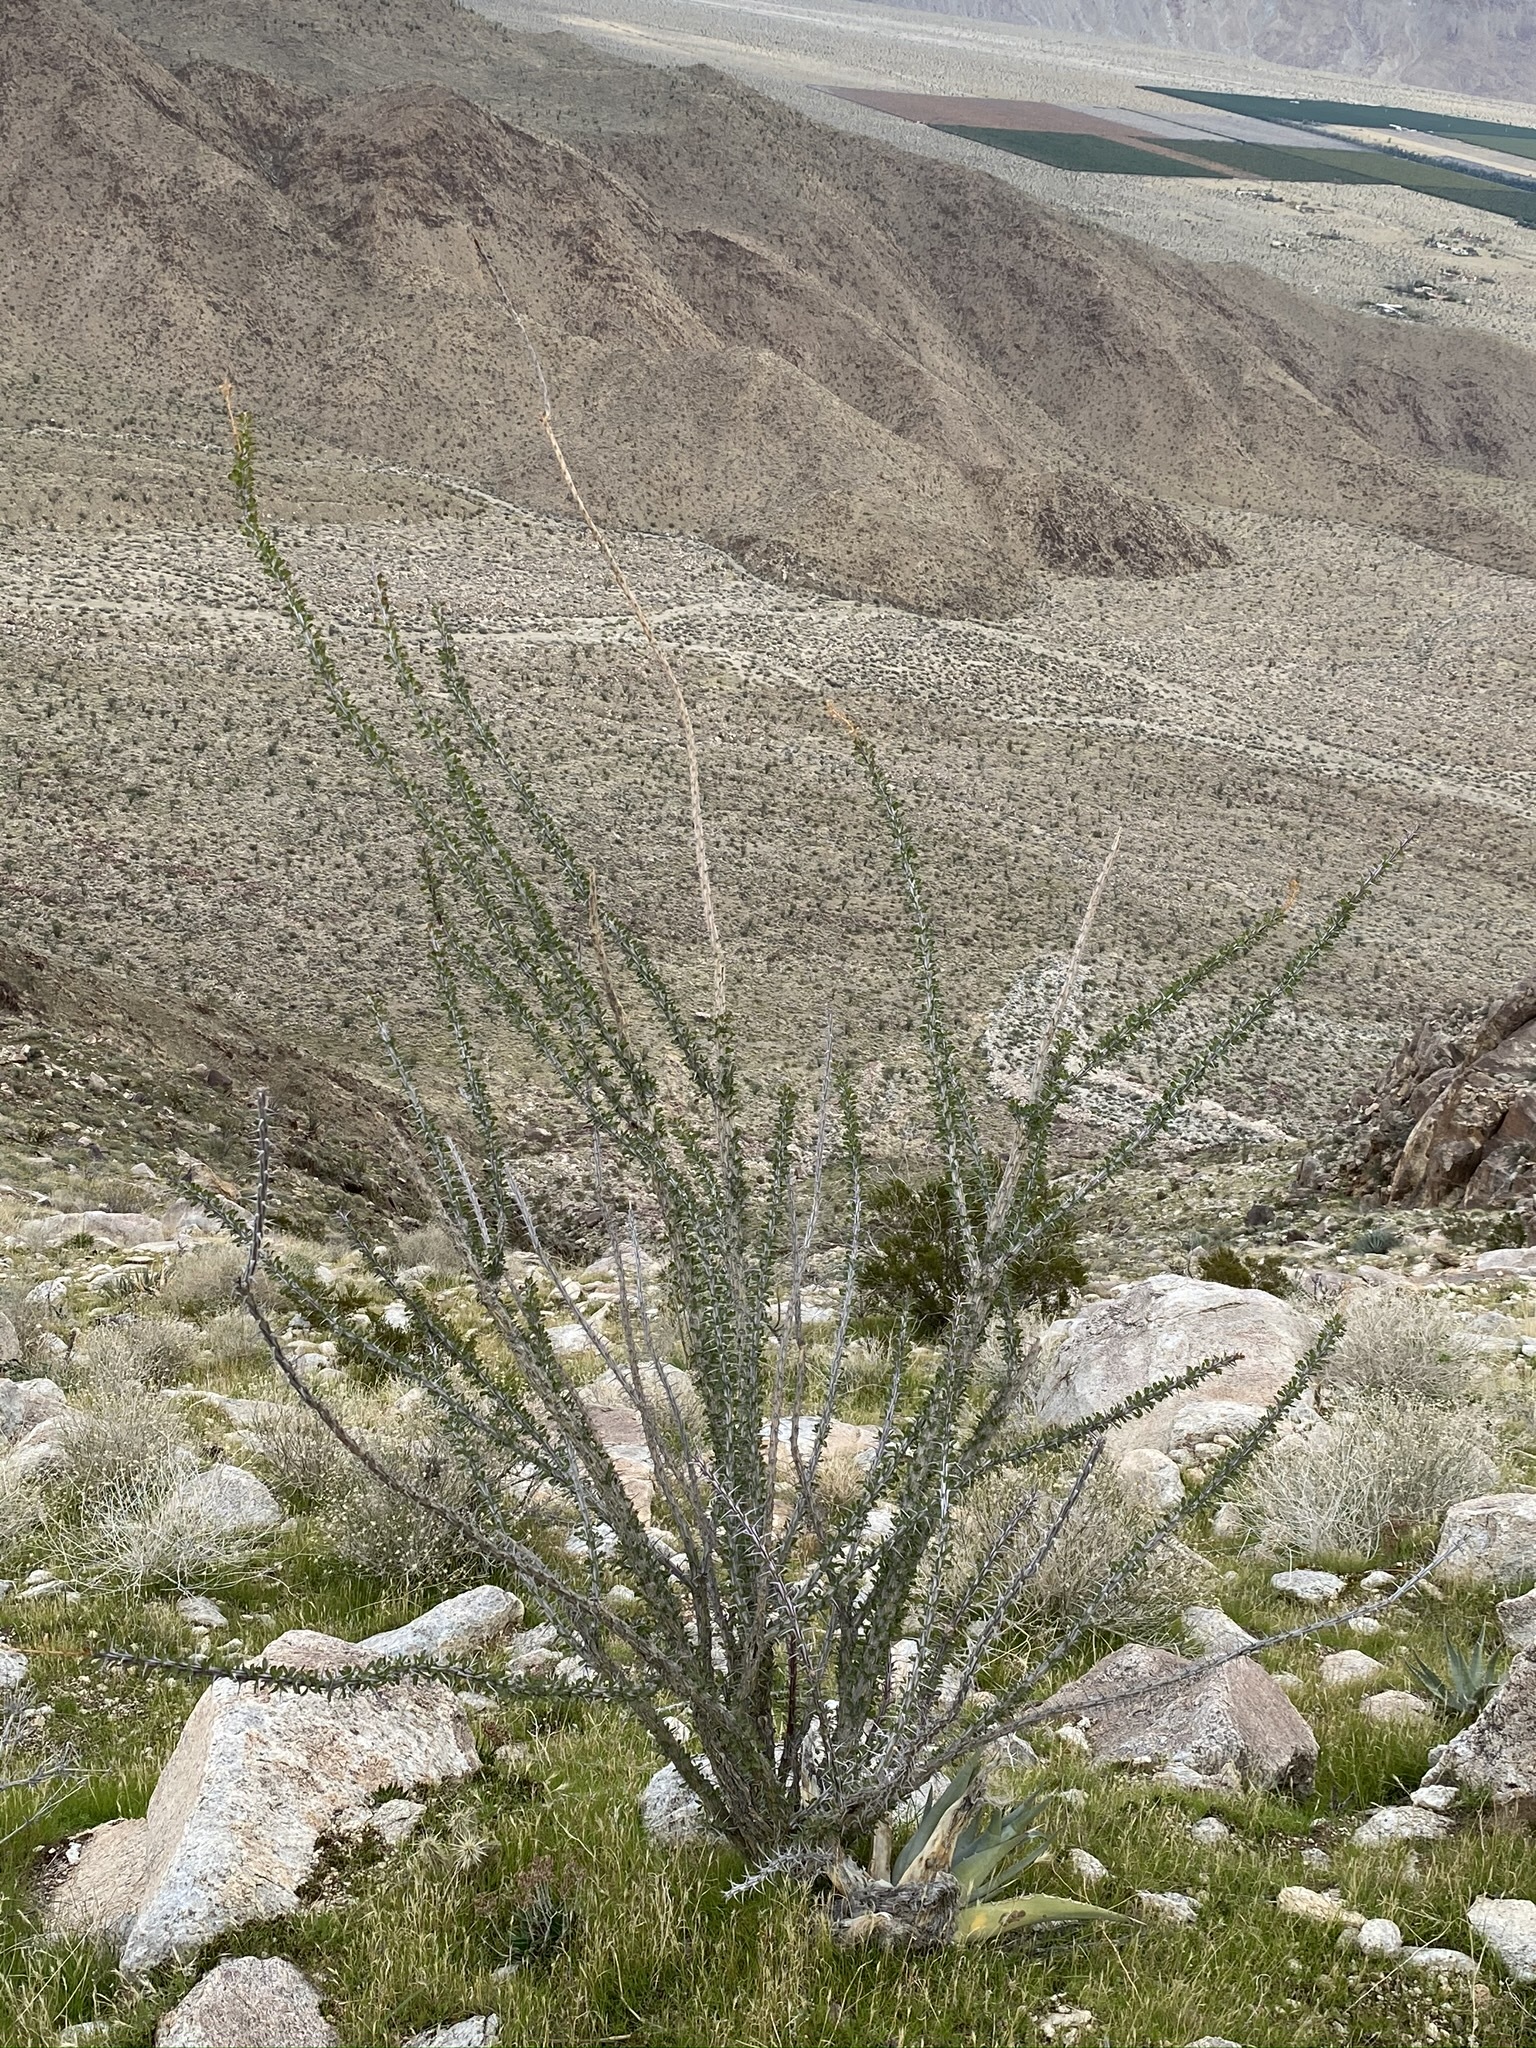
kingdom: Plantae
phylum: Tracheophyta
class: Magnoliopsida
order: Ericales
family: Fouquieriaceae
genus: Fouquieria
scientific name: Fouquieria splendens
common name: Vine-cactus
